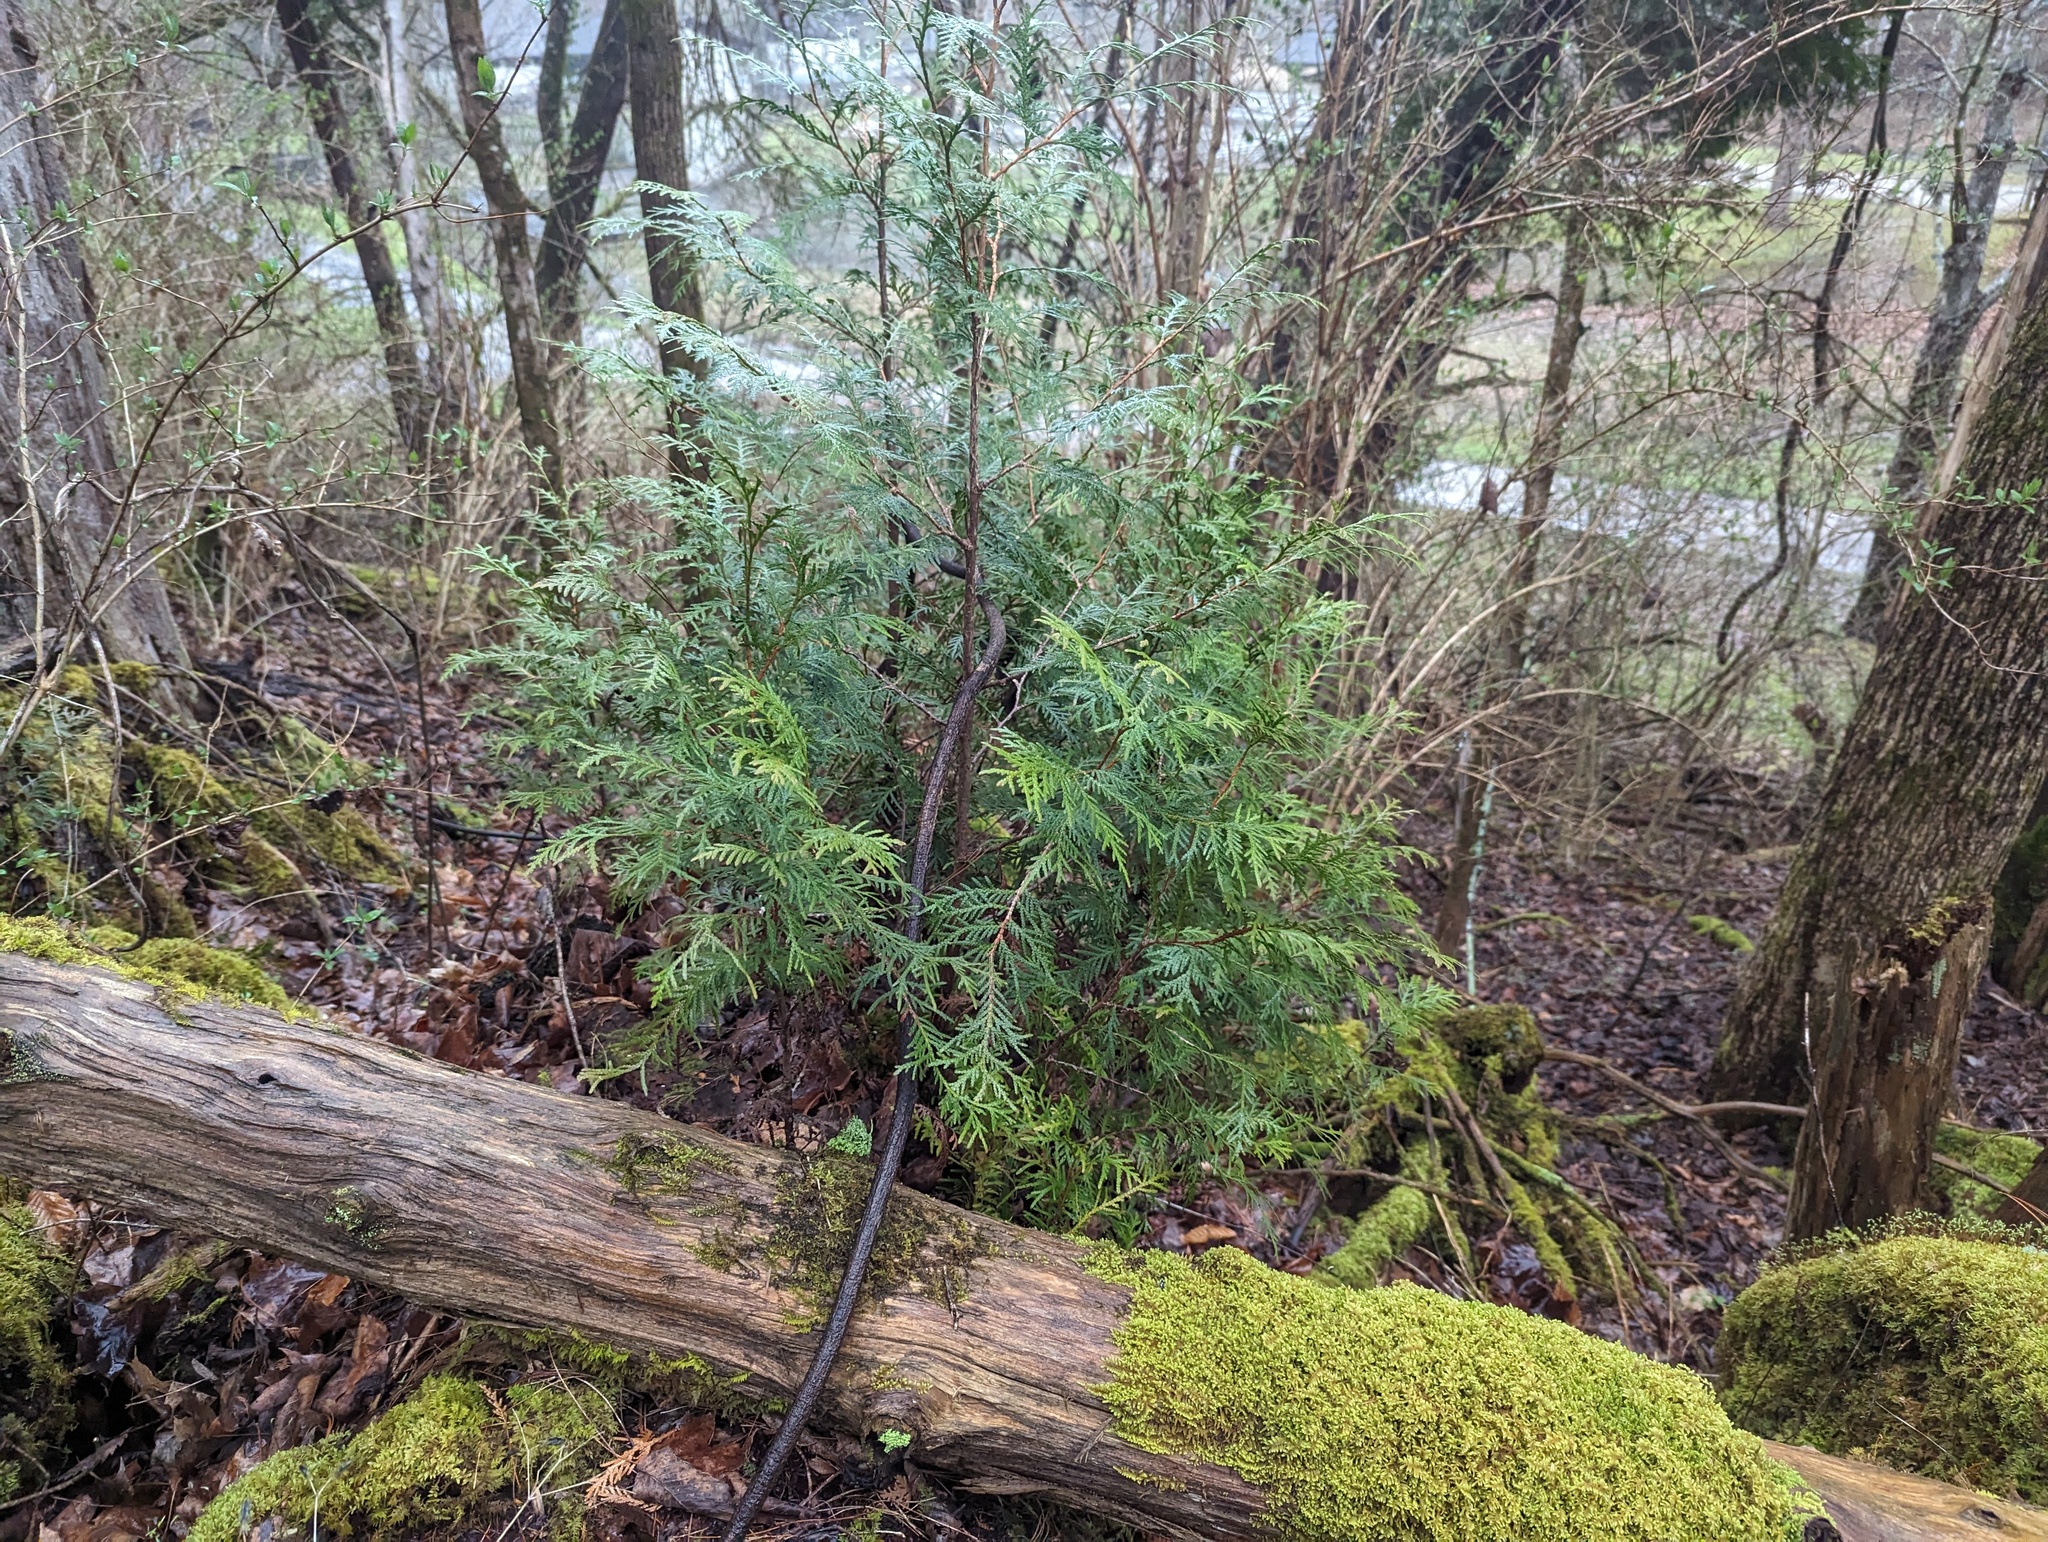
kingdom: Plantae
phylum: Tracheophyta
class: Pinopsida
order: Pinales
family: Cupressaceae
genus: Thuja
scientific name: Thuja occidentalis
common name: Northern white-cedar
